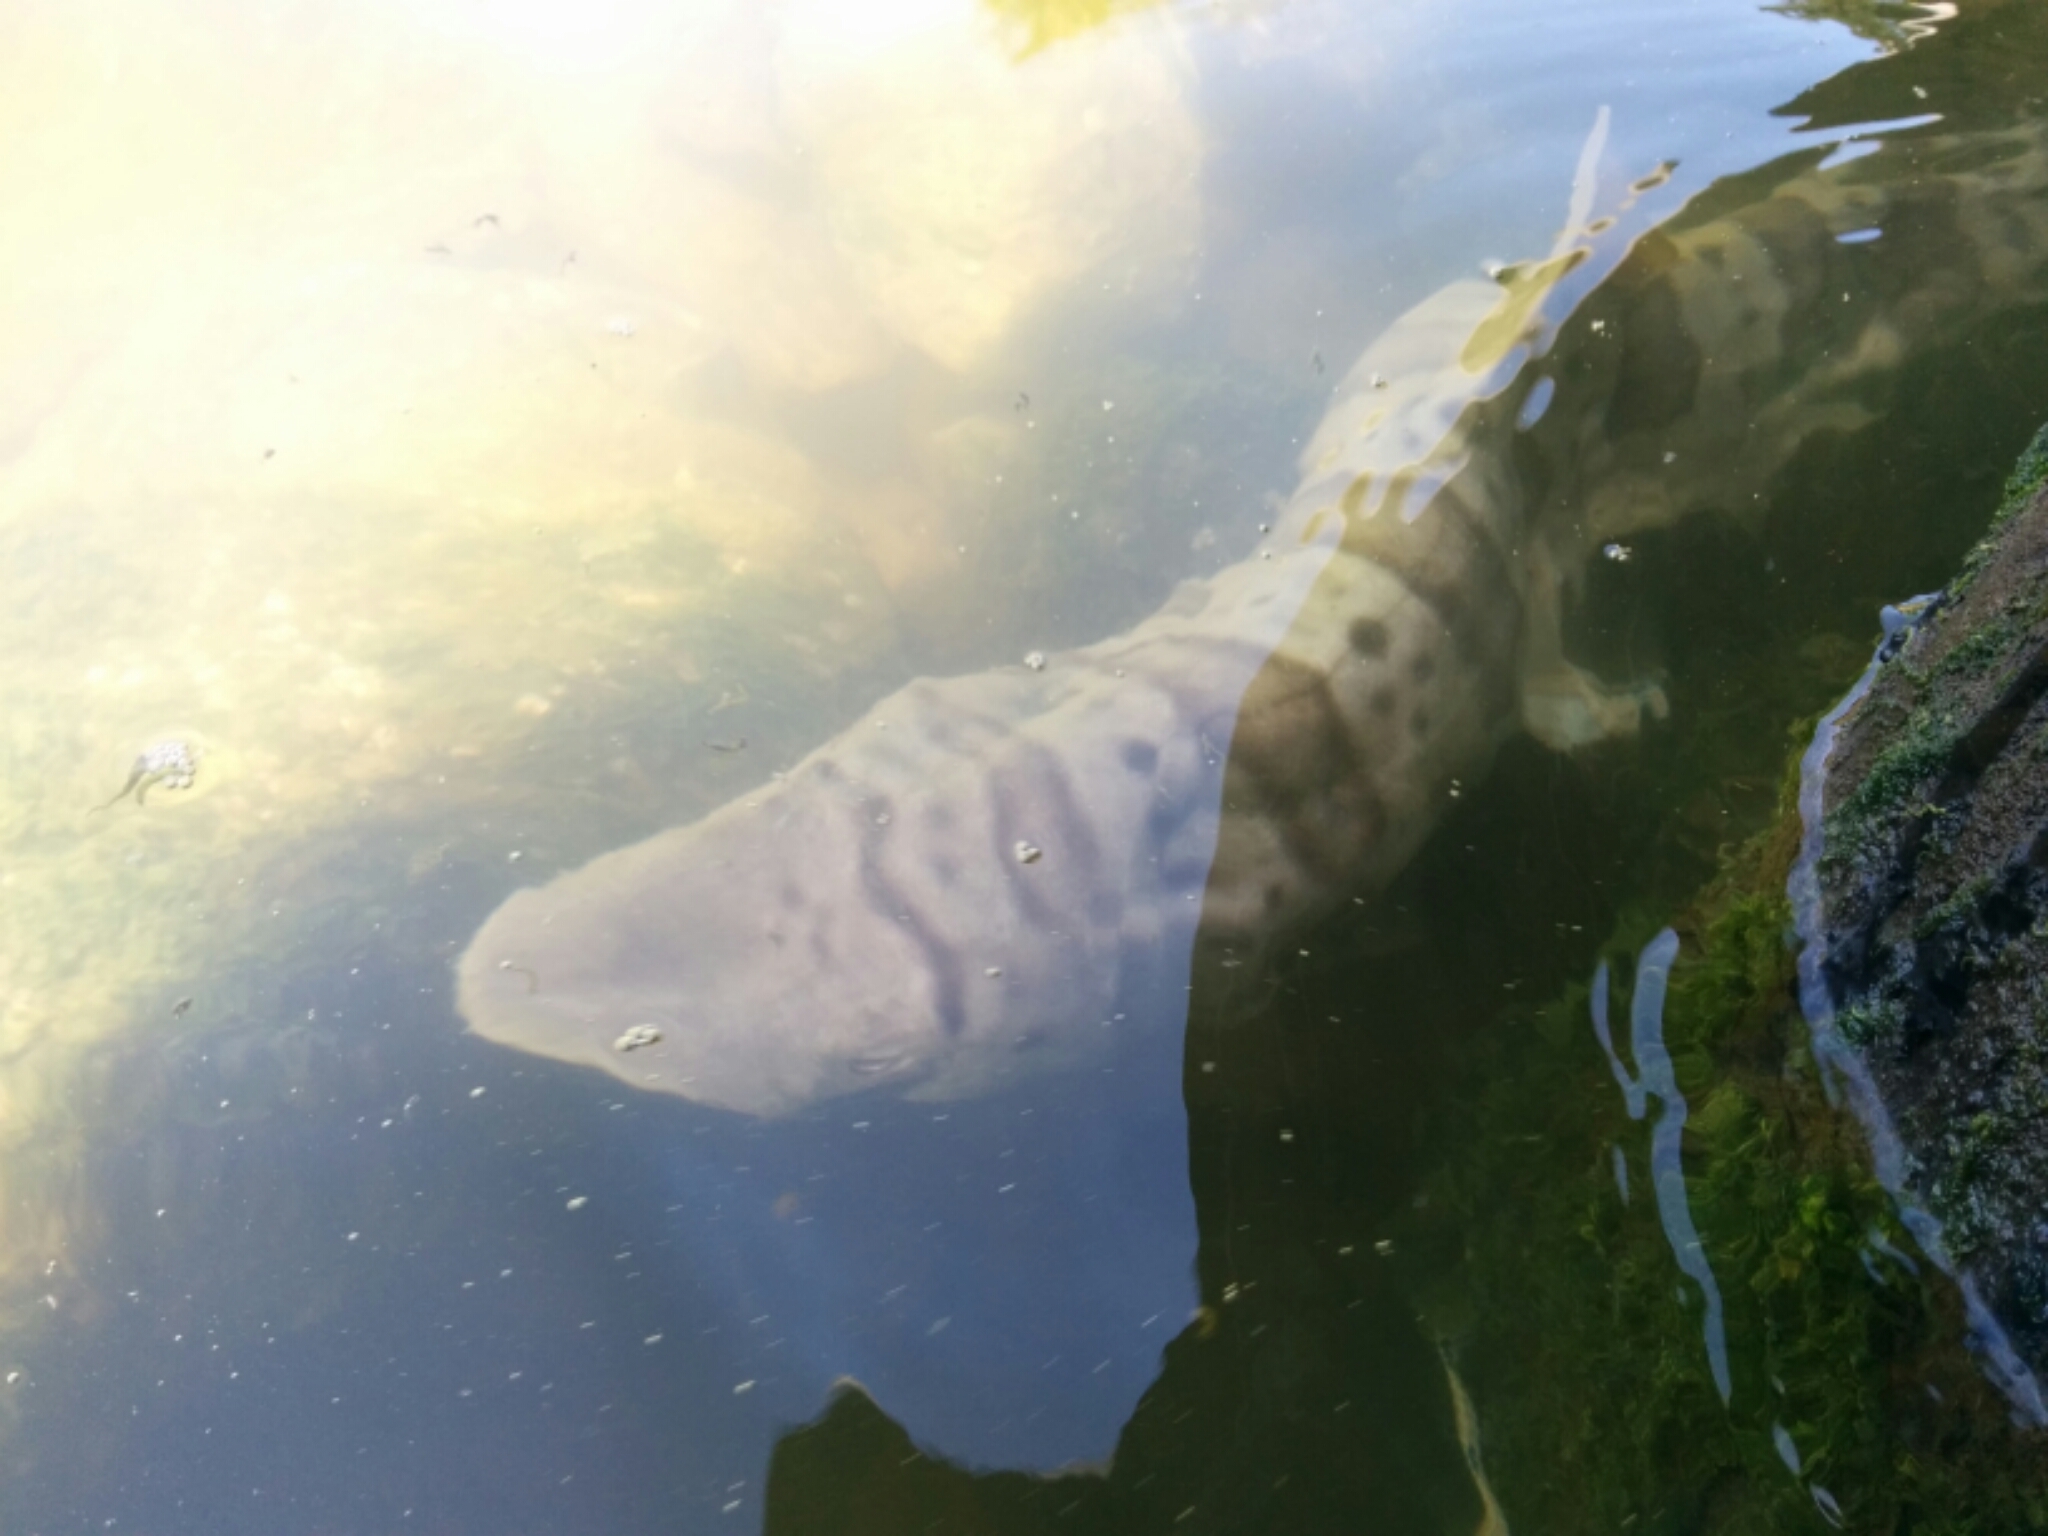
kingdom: Animalia
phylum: Chordata
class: Elasmobranchii
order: Carcharhiniformes
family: Triakidae
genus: Triakis
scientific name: Triakis semifasciata
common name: Leopard shark
